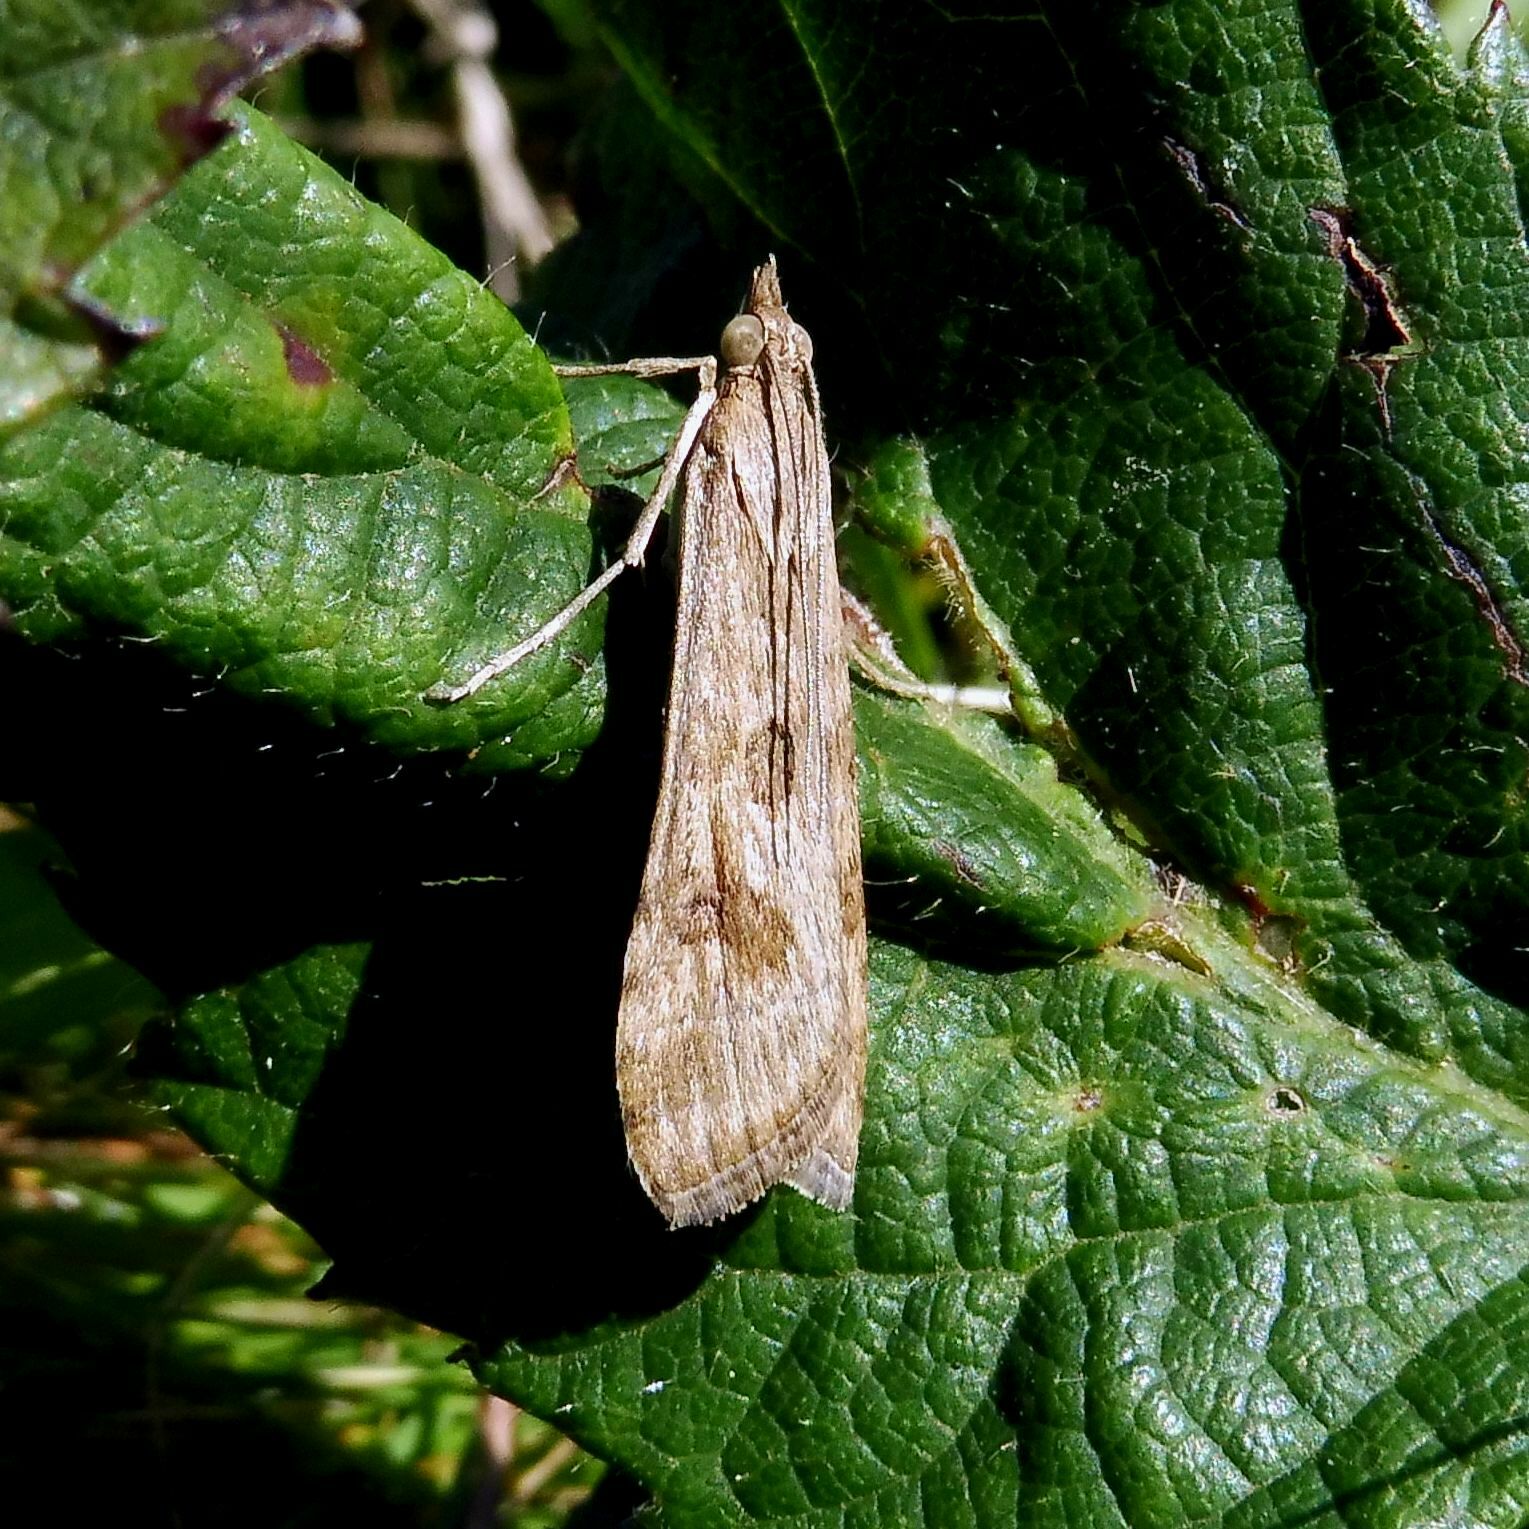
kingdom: Animalia
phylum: Arthropoda
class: Insecta
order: Lepidoptera
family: Crambidae
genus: Nomophila
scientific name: Nomophila noctuella
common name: Rush veneer
